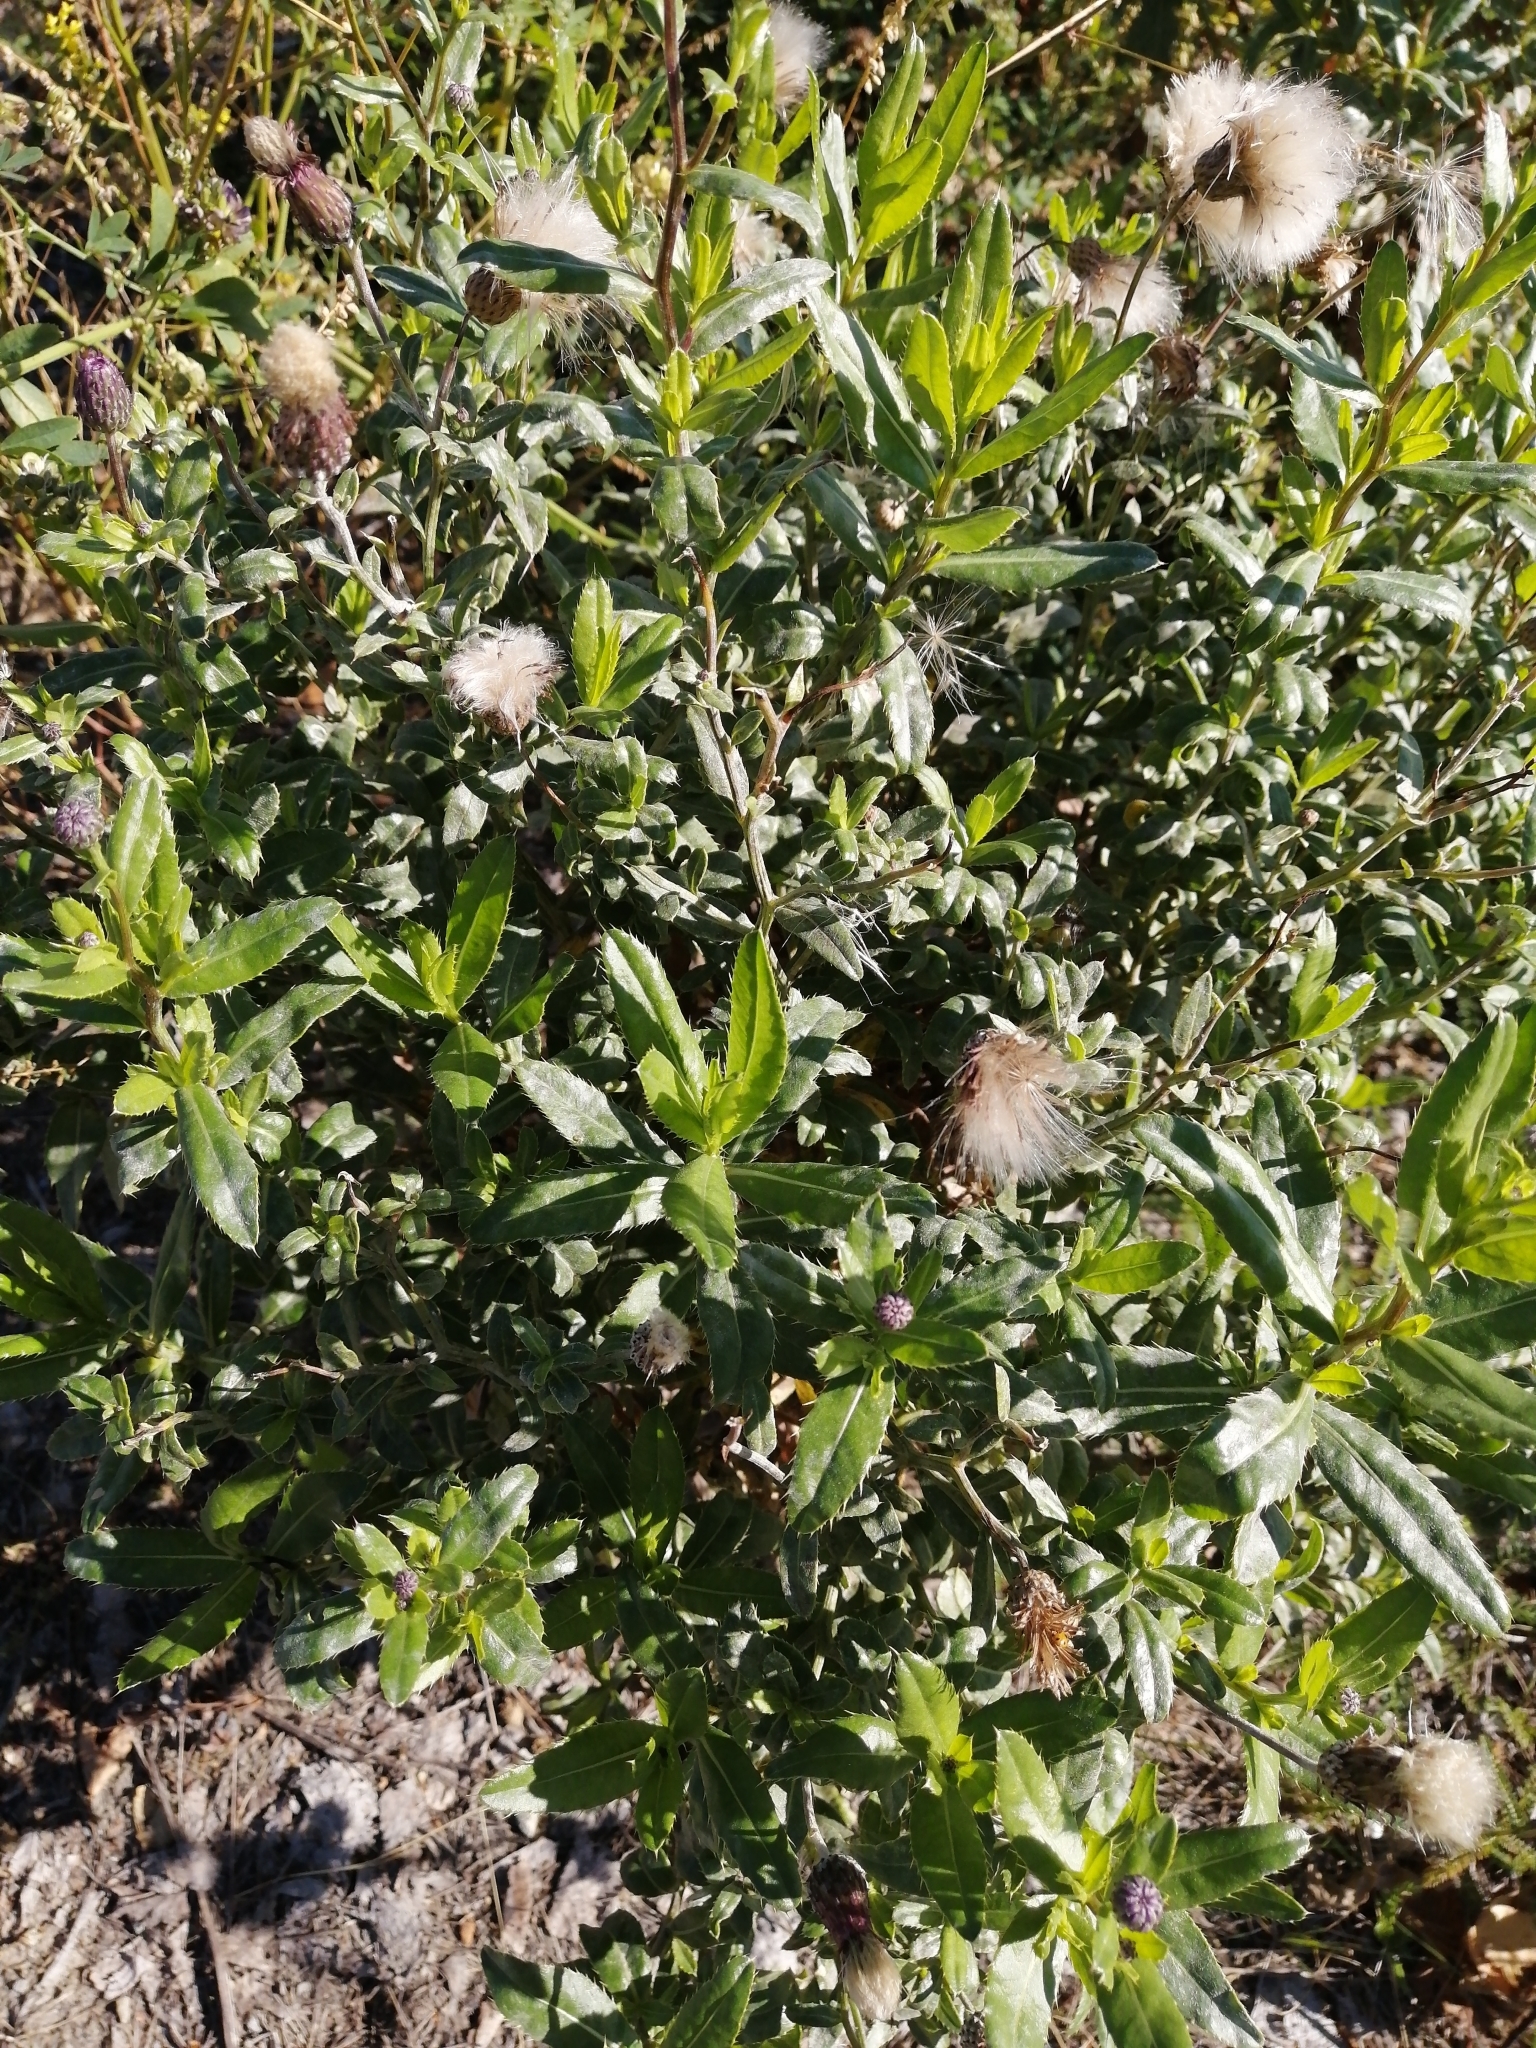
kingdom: Plantae
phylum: Tracheophyta
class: Magnoliopsida
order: Asterales
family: Asteraceae
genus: Cirsium
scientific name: Cirsium arvense
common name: Creeping thistle
